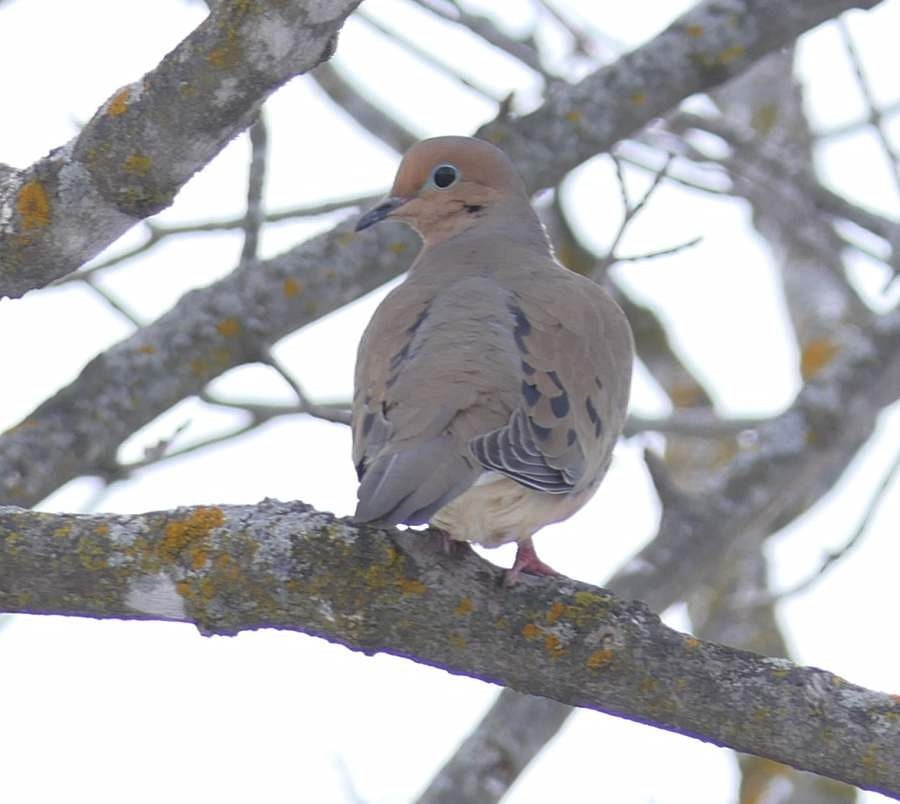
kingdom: Animalia
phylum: Chordata
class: Aves
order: Columbiformes
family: Columbidae
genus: Zenaida
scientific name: Zenaida macroura
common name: Mourning dove
